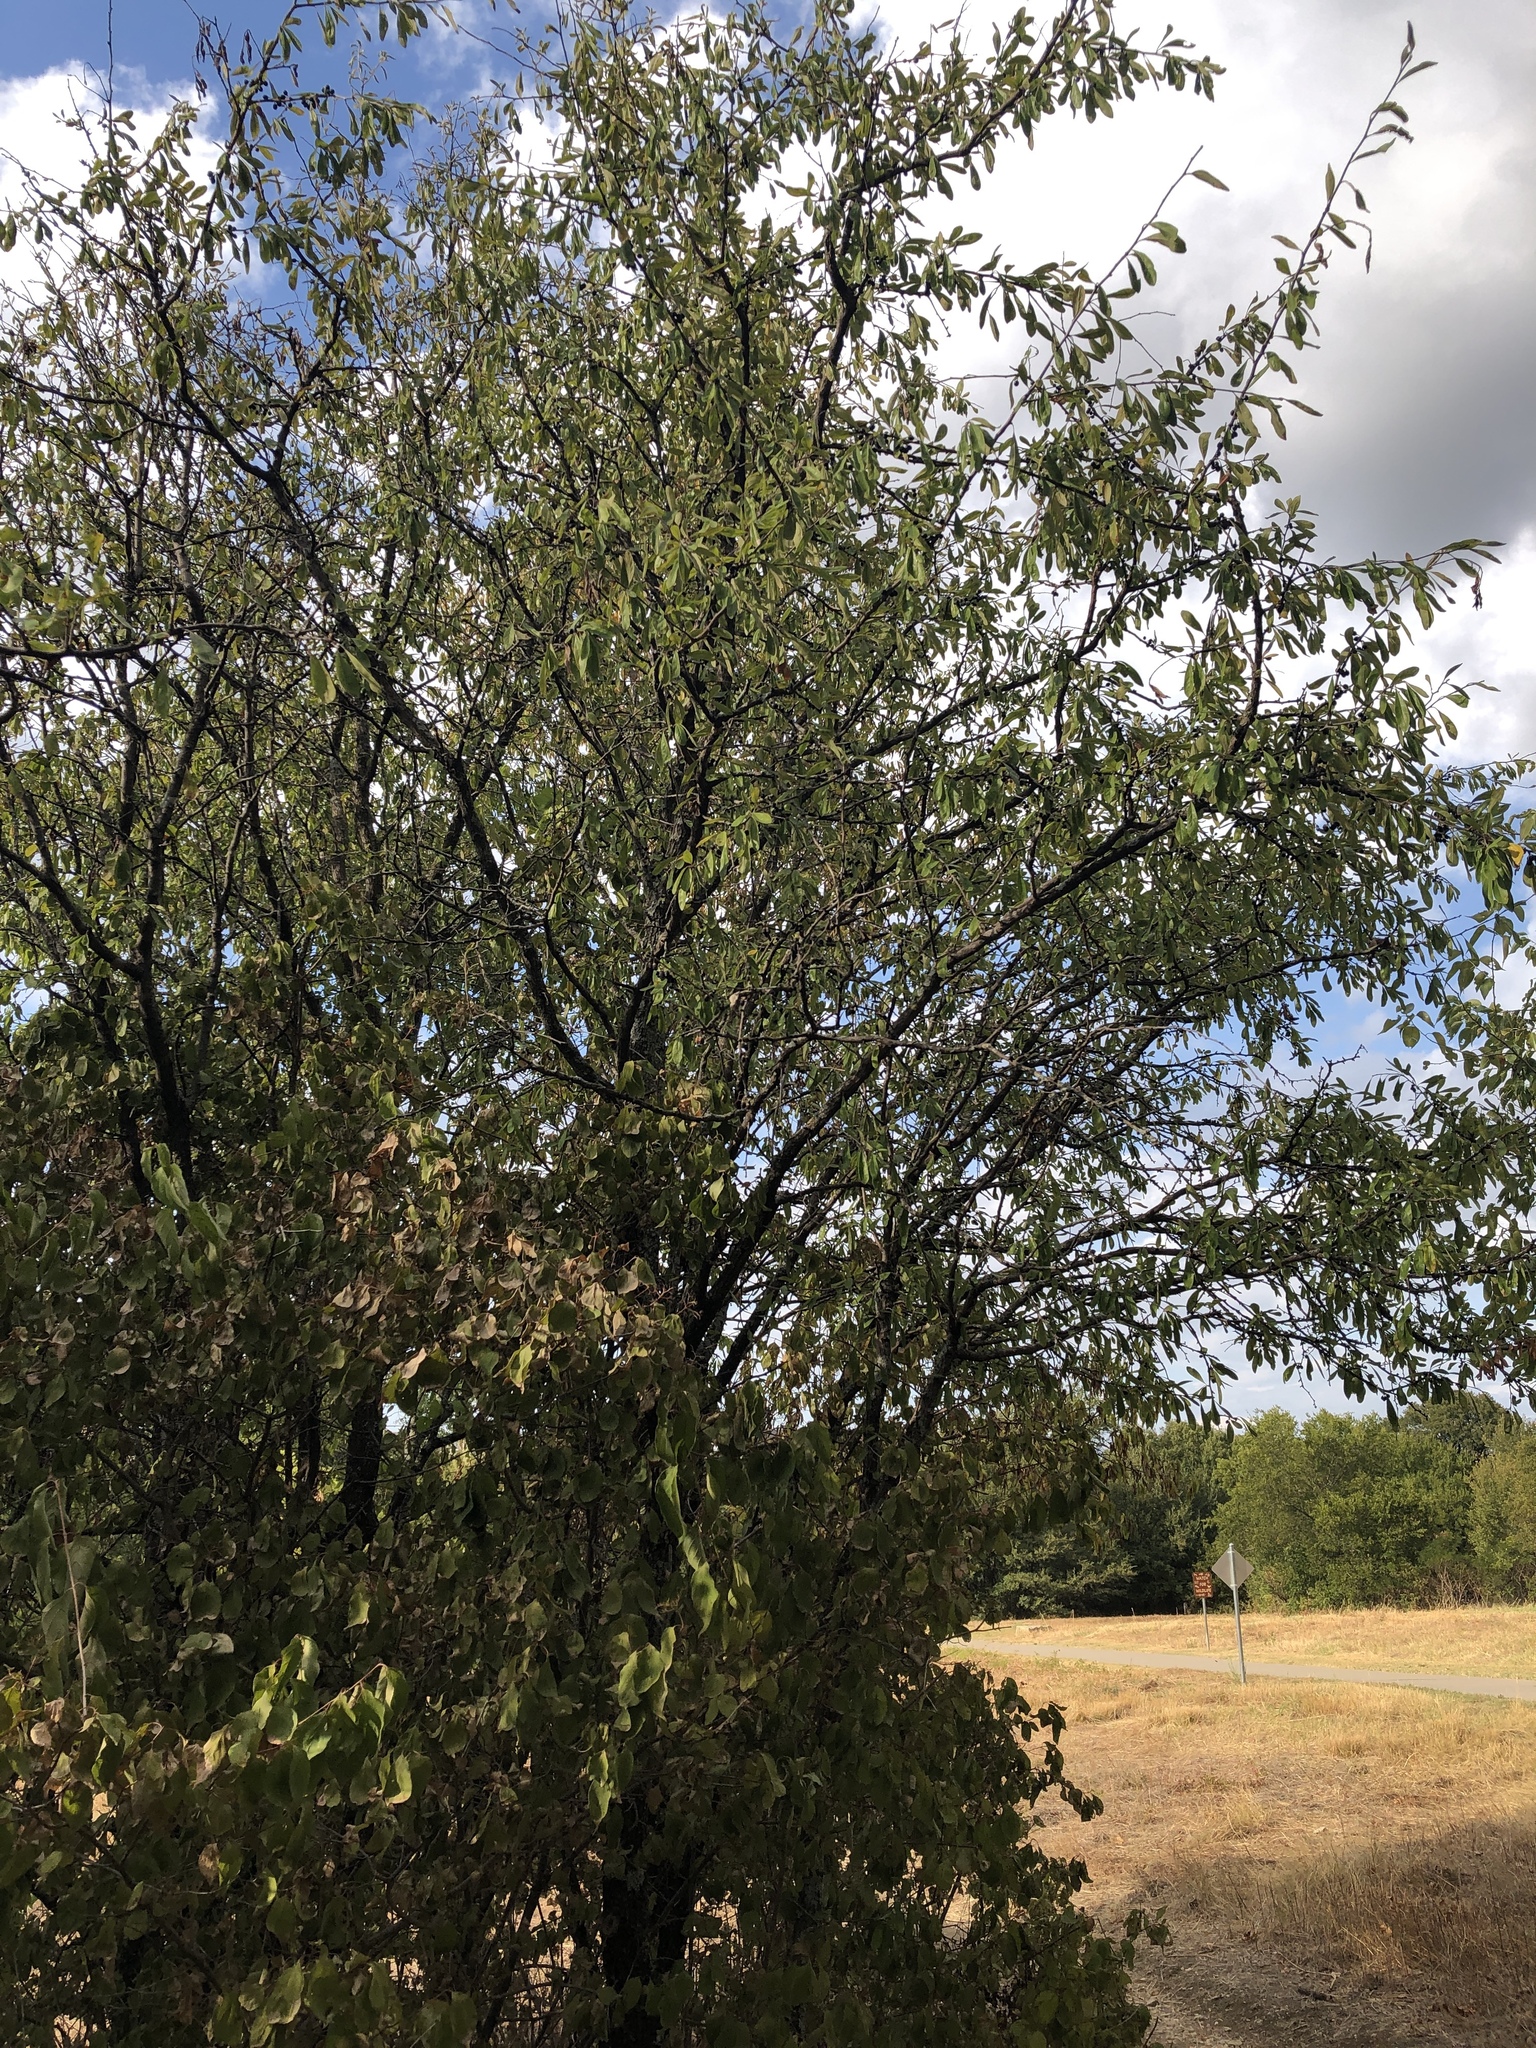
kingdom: Plantae
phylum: Tracheophyta
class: Magnoliopsida
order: Ericales
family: Sapotaceae
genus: Sideroxylon
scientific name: Sideroxylon lanuginosum
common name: Chittamwood
